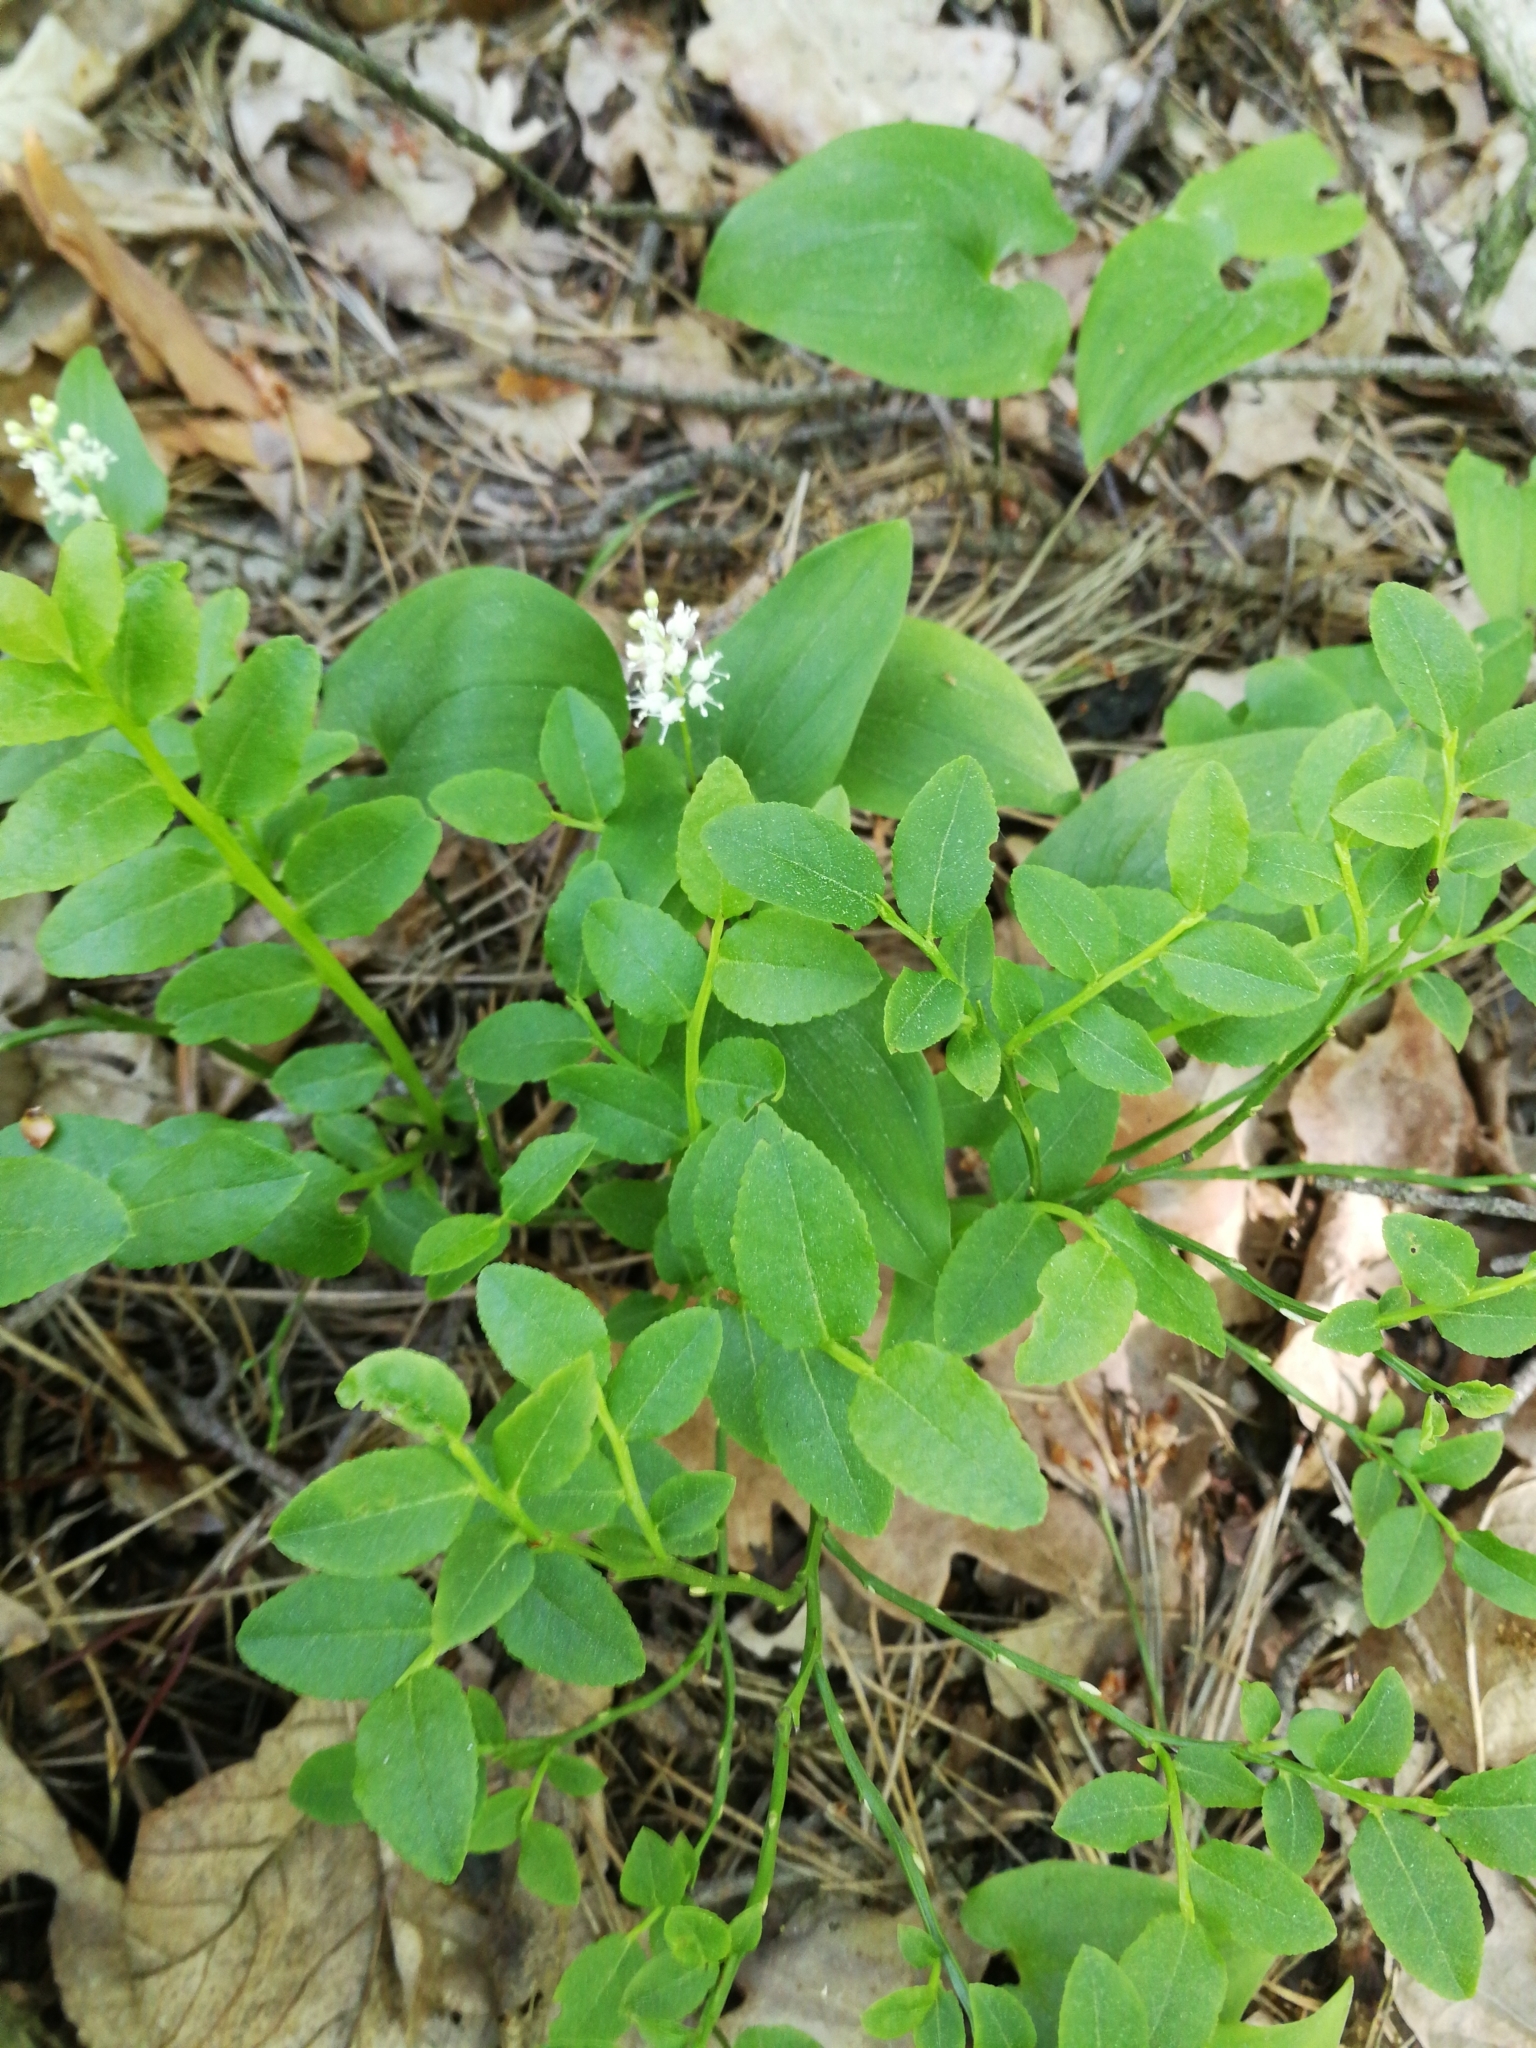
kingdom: Plantae
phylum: Tracheophyta
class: Magnoliopsida
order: Ericales
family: Ericaceae
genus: Vaccinium
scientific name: Vaccinium myrtillus
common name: Bilberry
